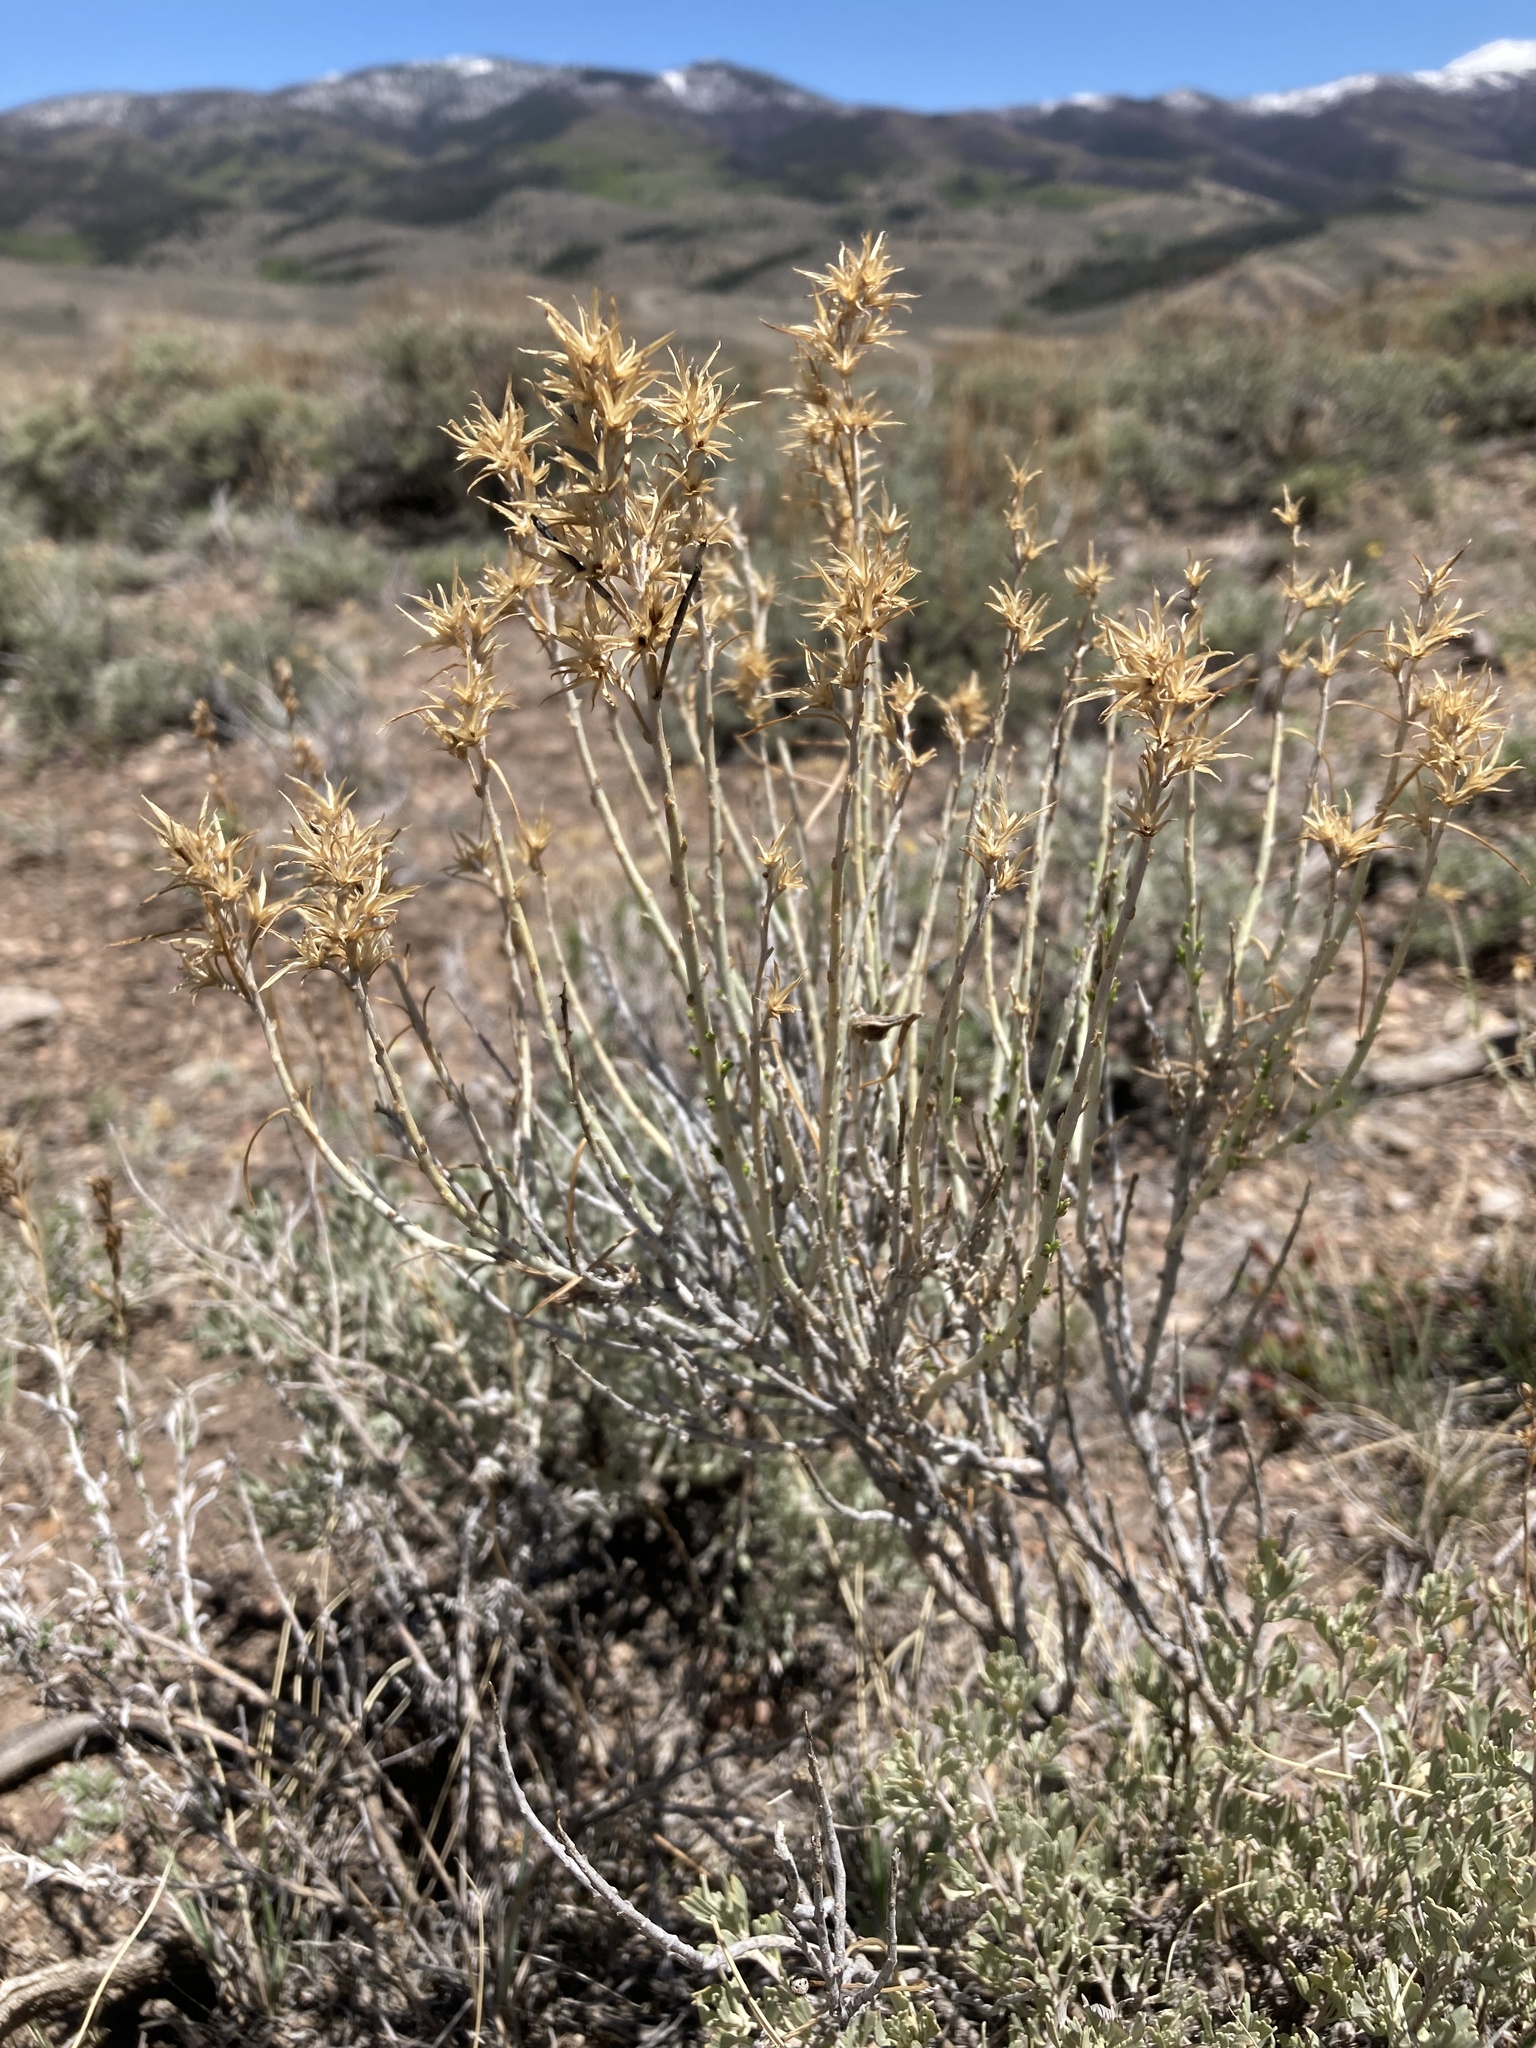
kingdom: Plantae
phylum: Tracheophyta
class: Magnoliopsida
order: Asterales
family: Asteraceae
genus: Ericameria
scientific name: Ericameria nauseosa
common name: Rubber rabbitbrush
